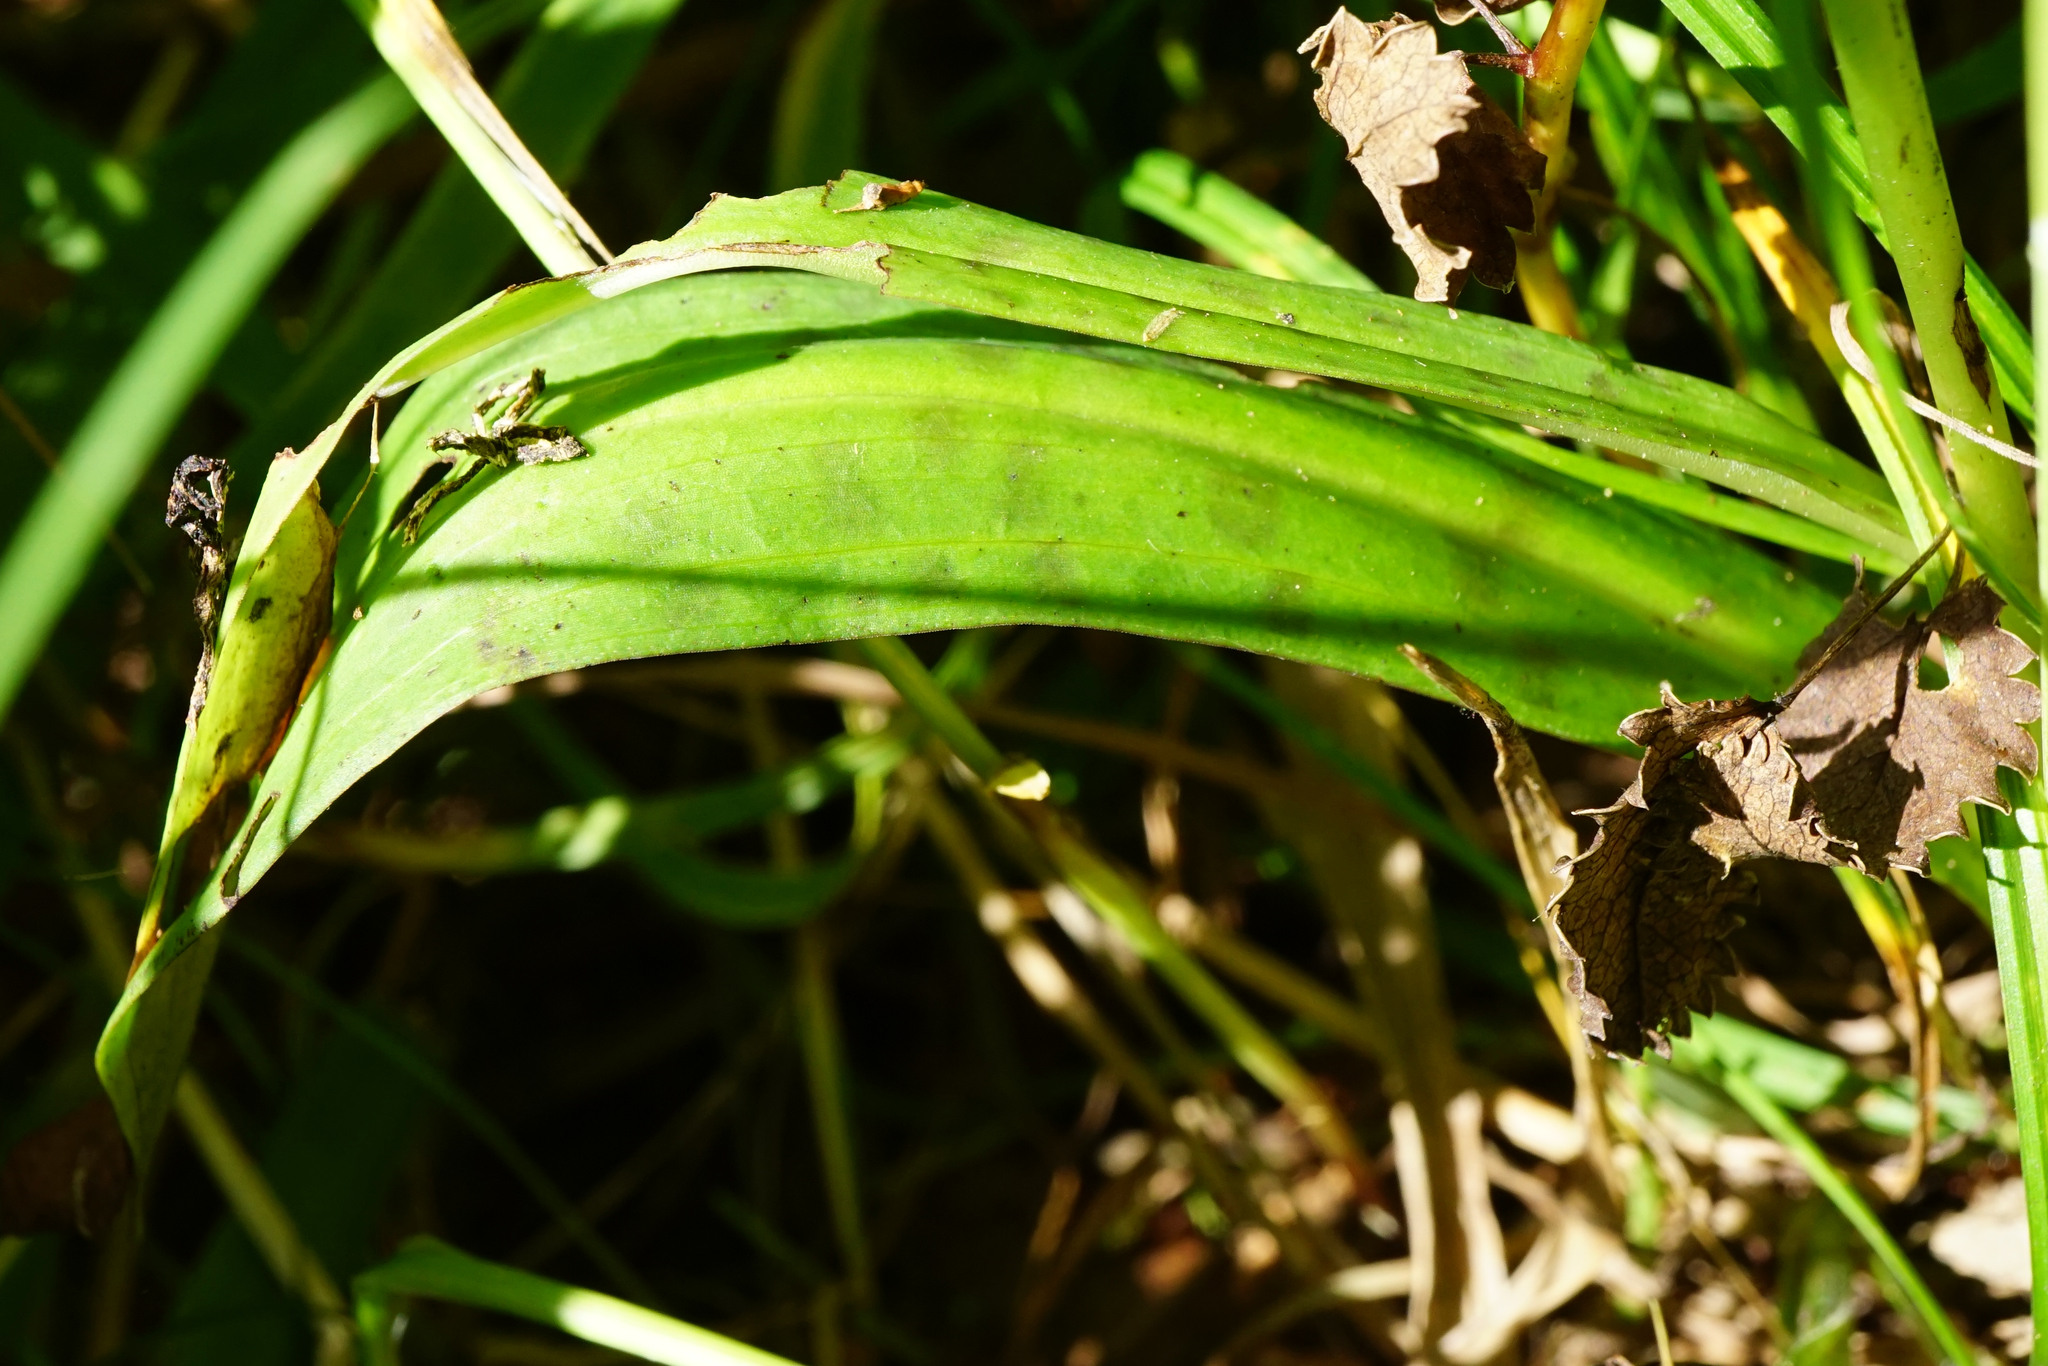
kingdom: Plantae
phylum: Tracheophyta
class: Liliopsida
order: Asparagales
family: Orchidaceae
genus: Dactylorhiza
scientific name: Dactylorhiza maculata
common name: Heath spotted-orchid
